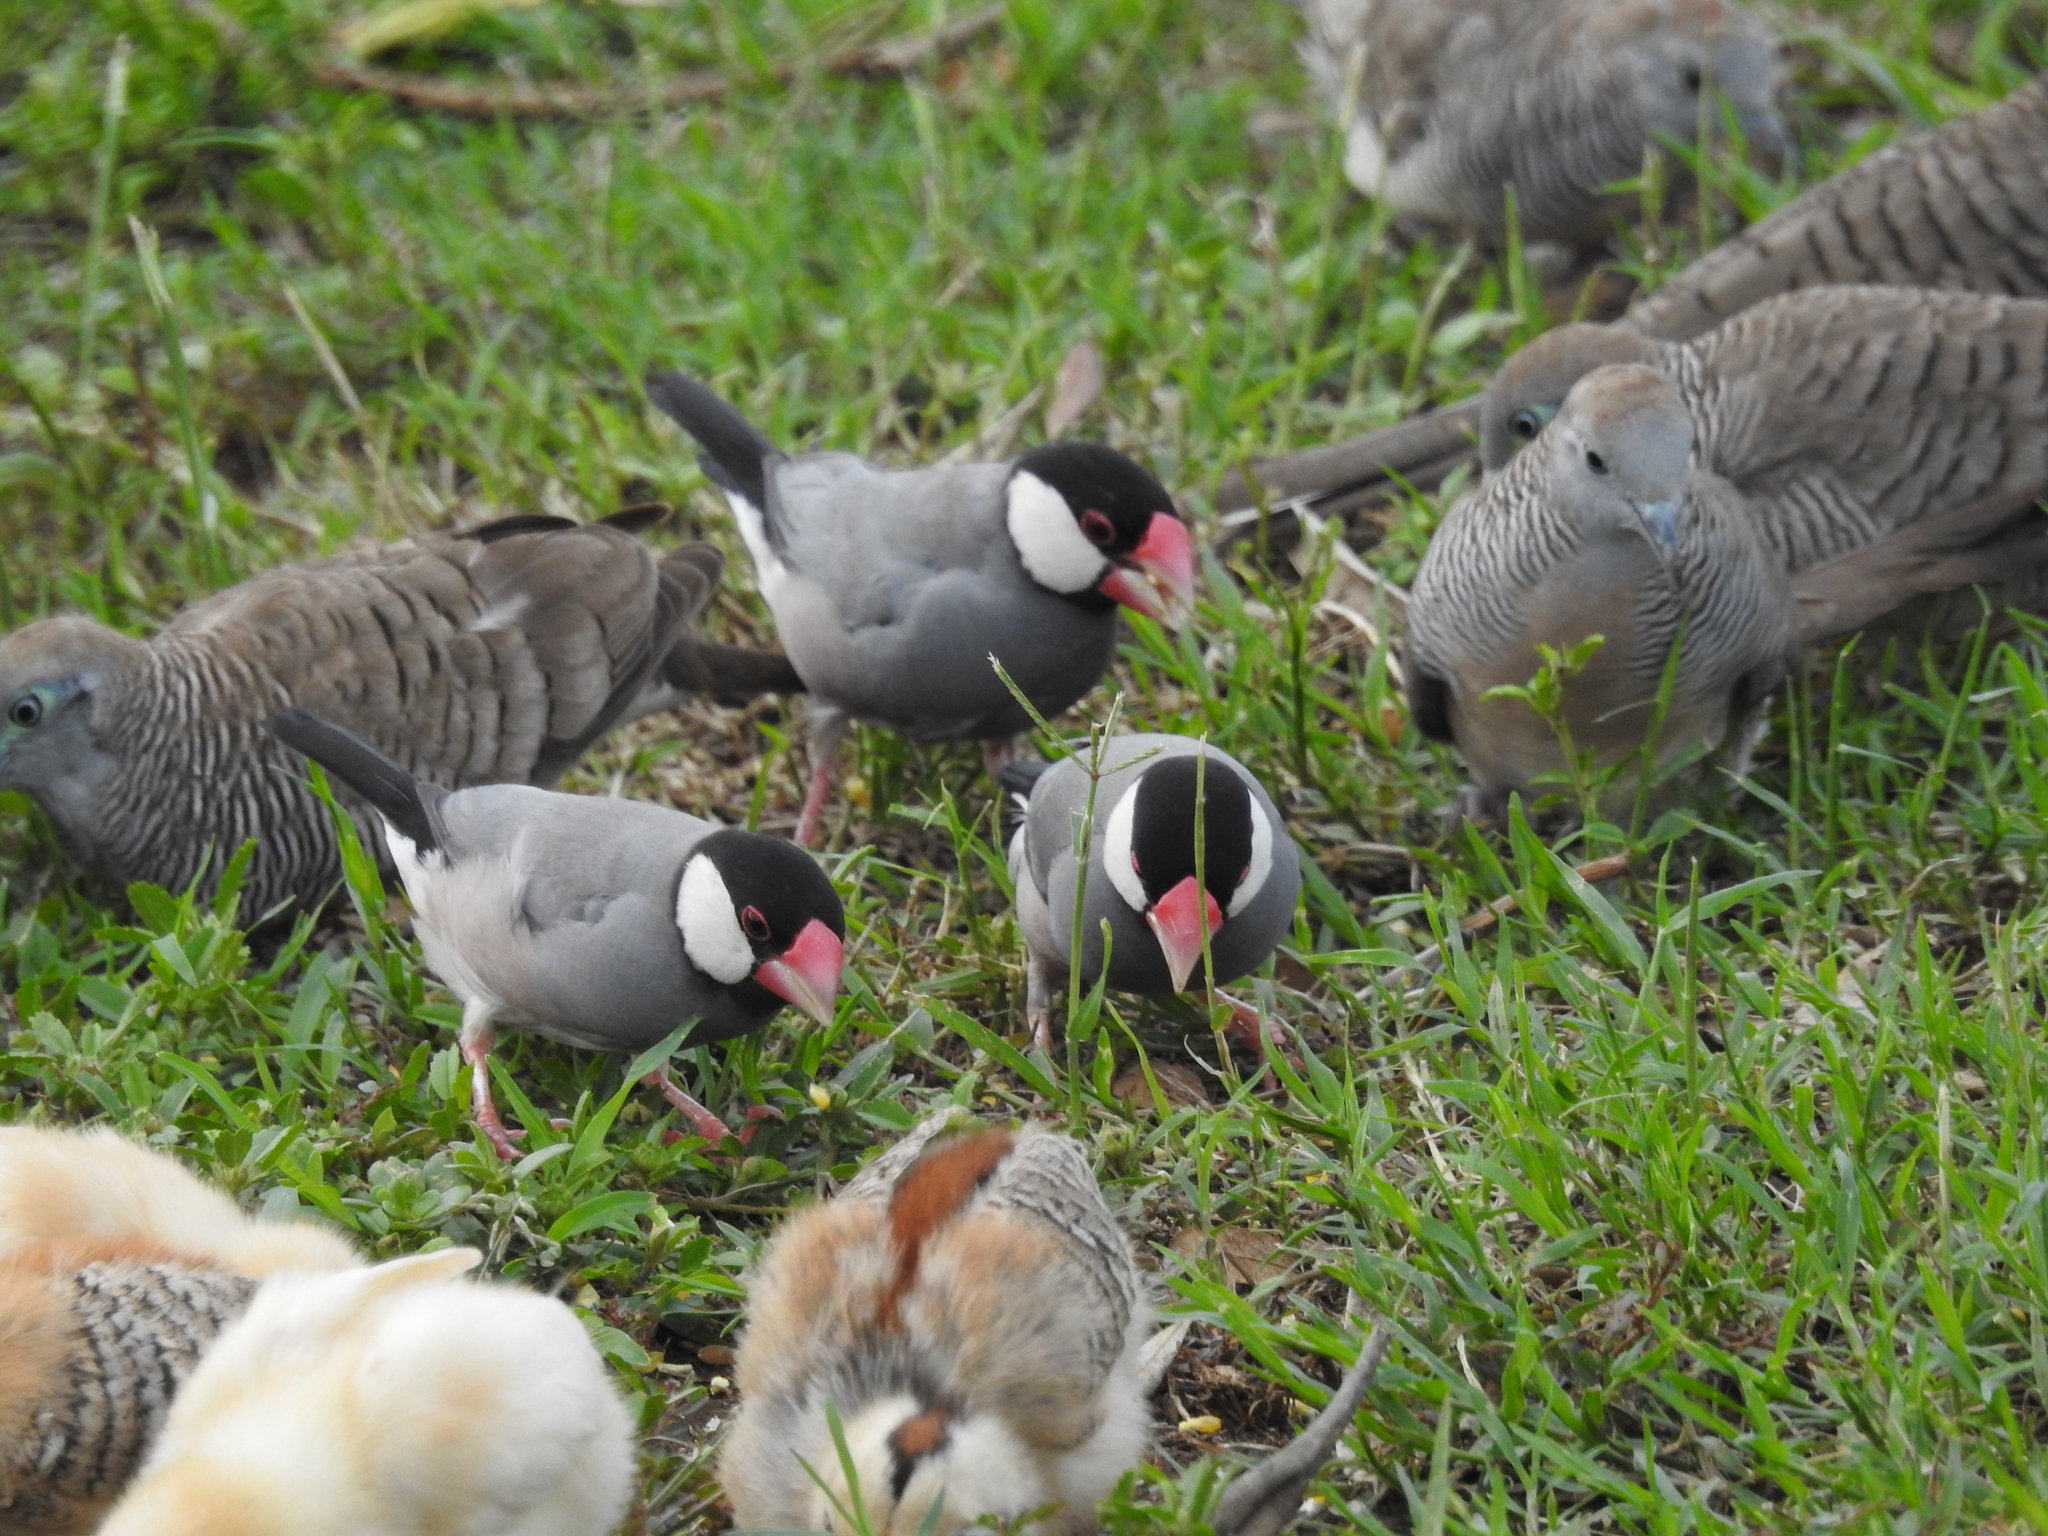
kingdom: Animalia
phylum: Chordata
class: Aves
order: Passeriformes
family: Estrildidae
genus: Lonchura
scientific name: Lonchura oryzivora
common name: Java sparrow
